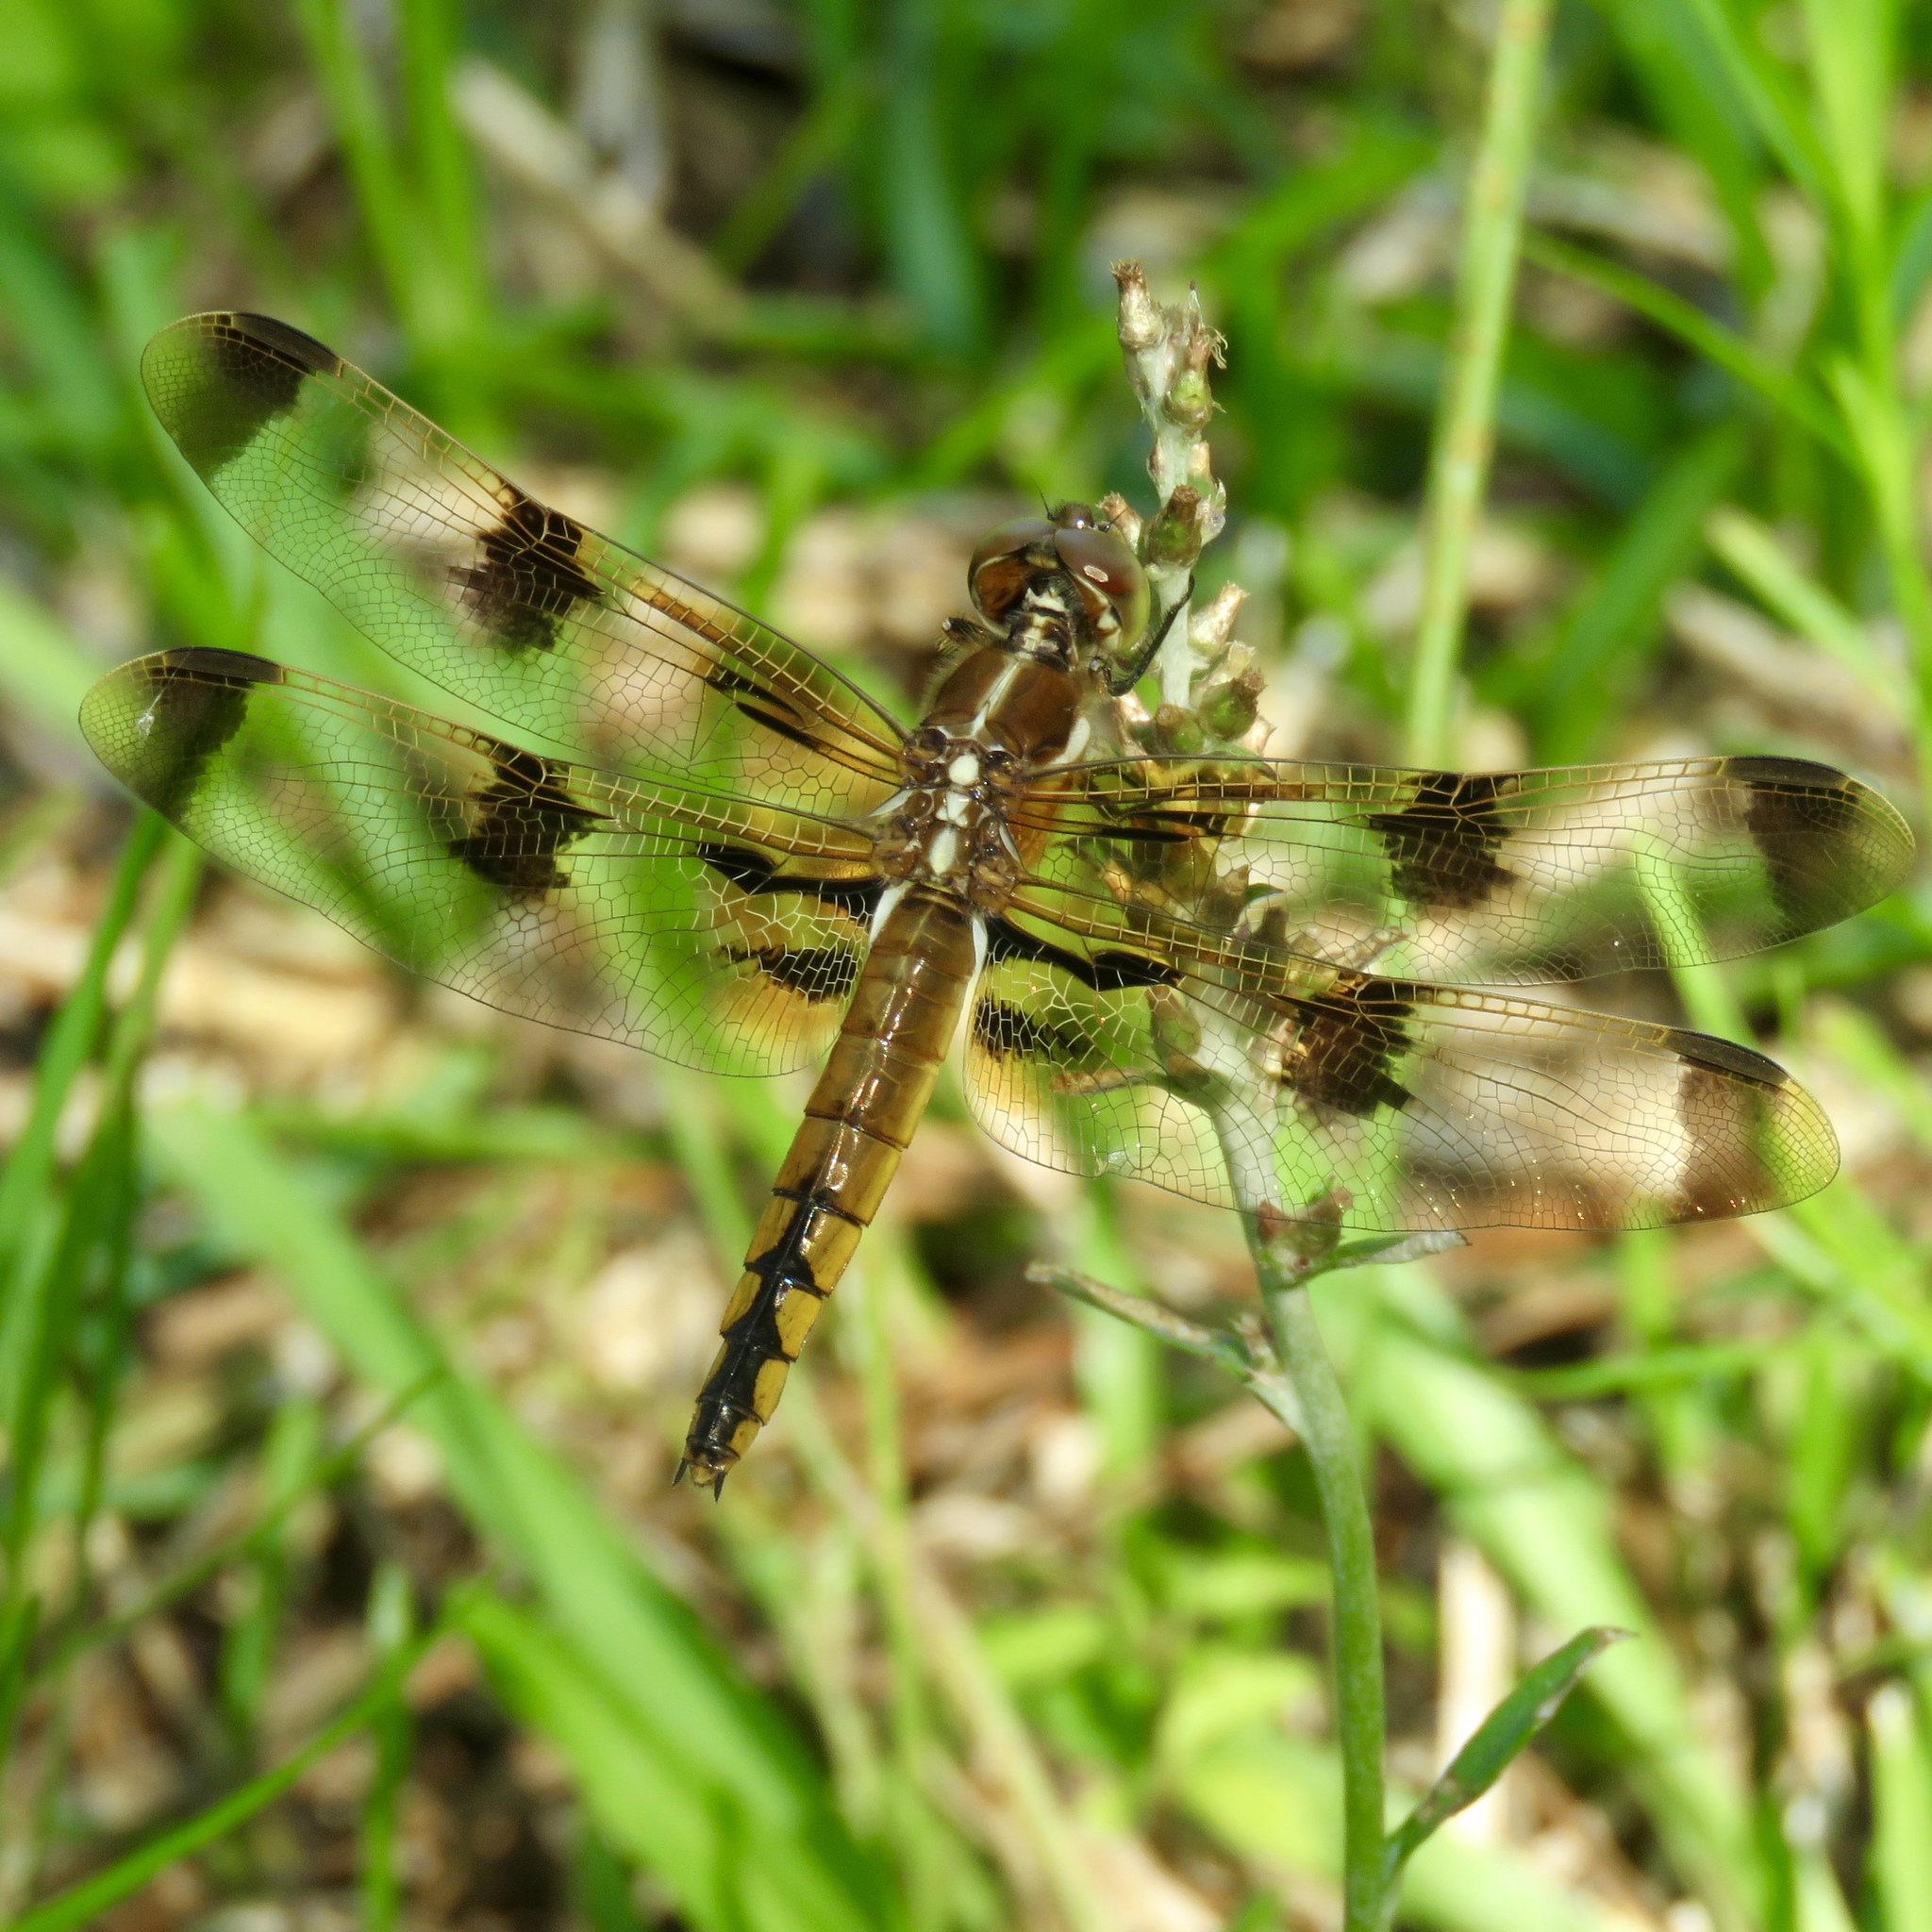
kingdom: Animalia
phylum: Arthropoda
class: Insecta
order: Odonata
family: Libellulidae
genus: Libellula
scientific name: Libellula semifasciata
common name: Painted skimmer
